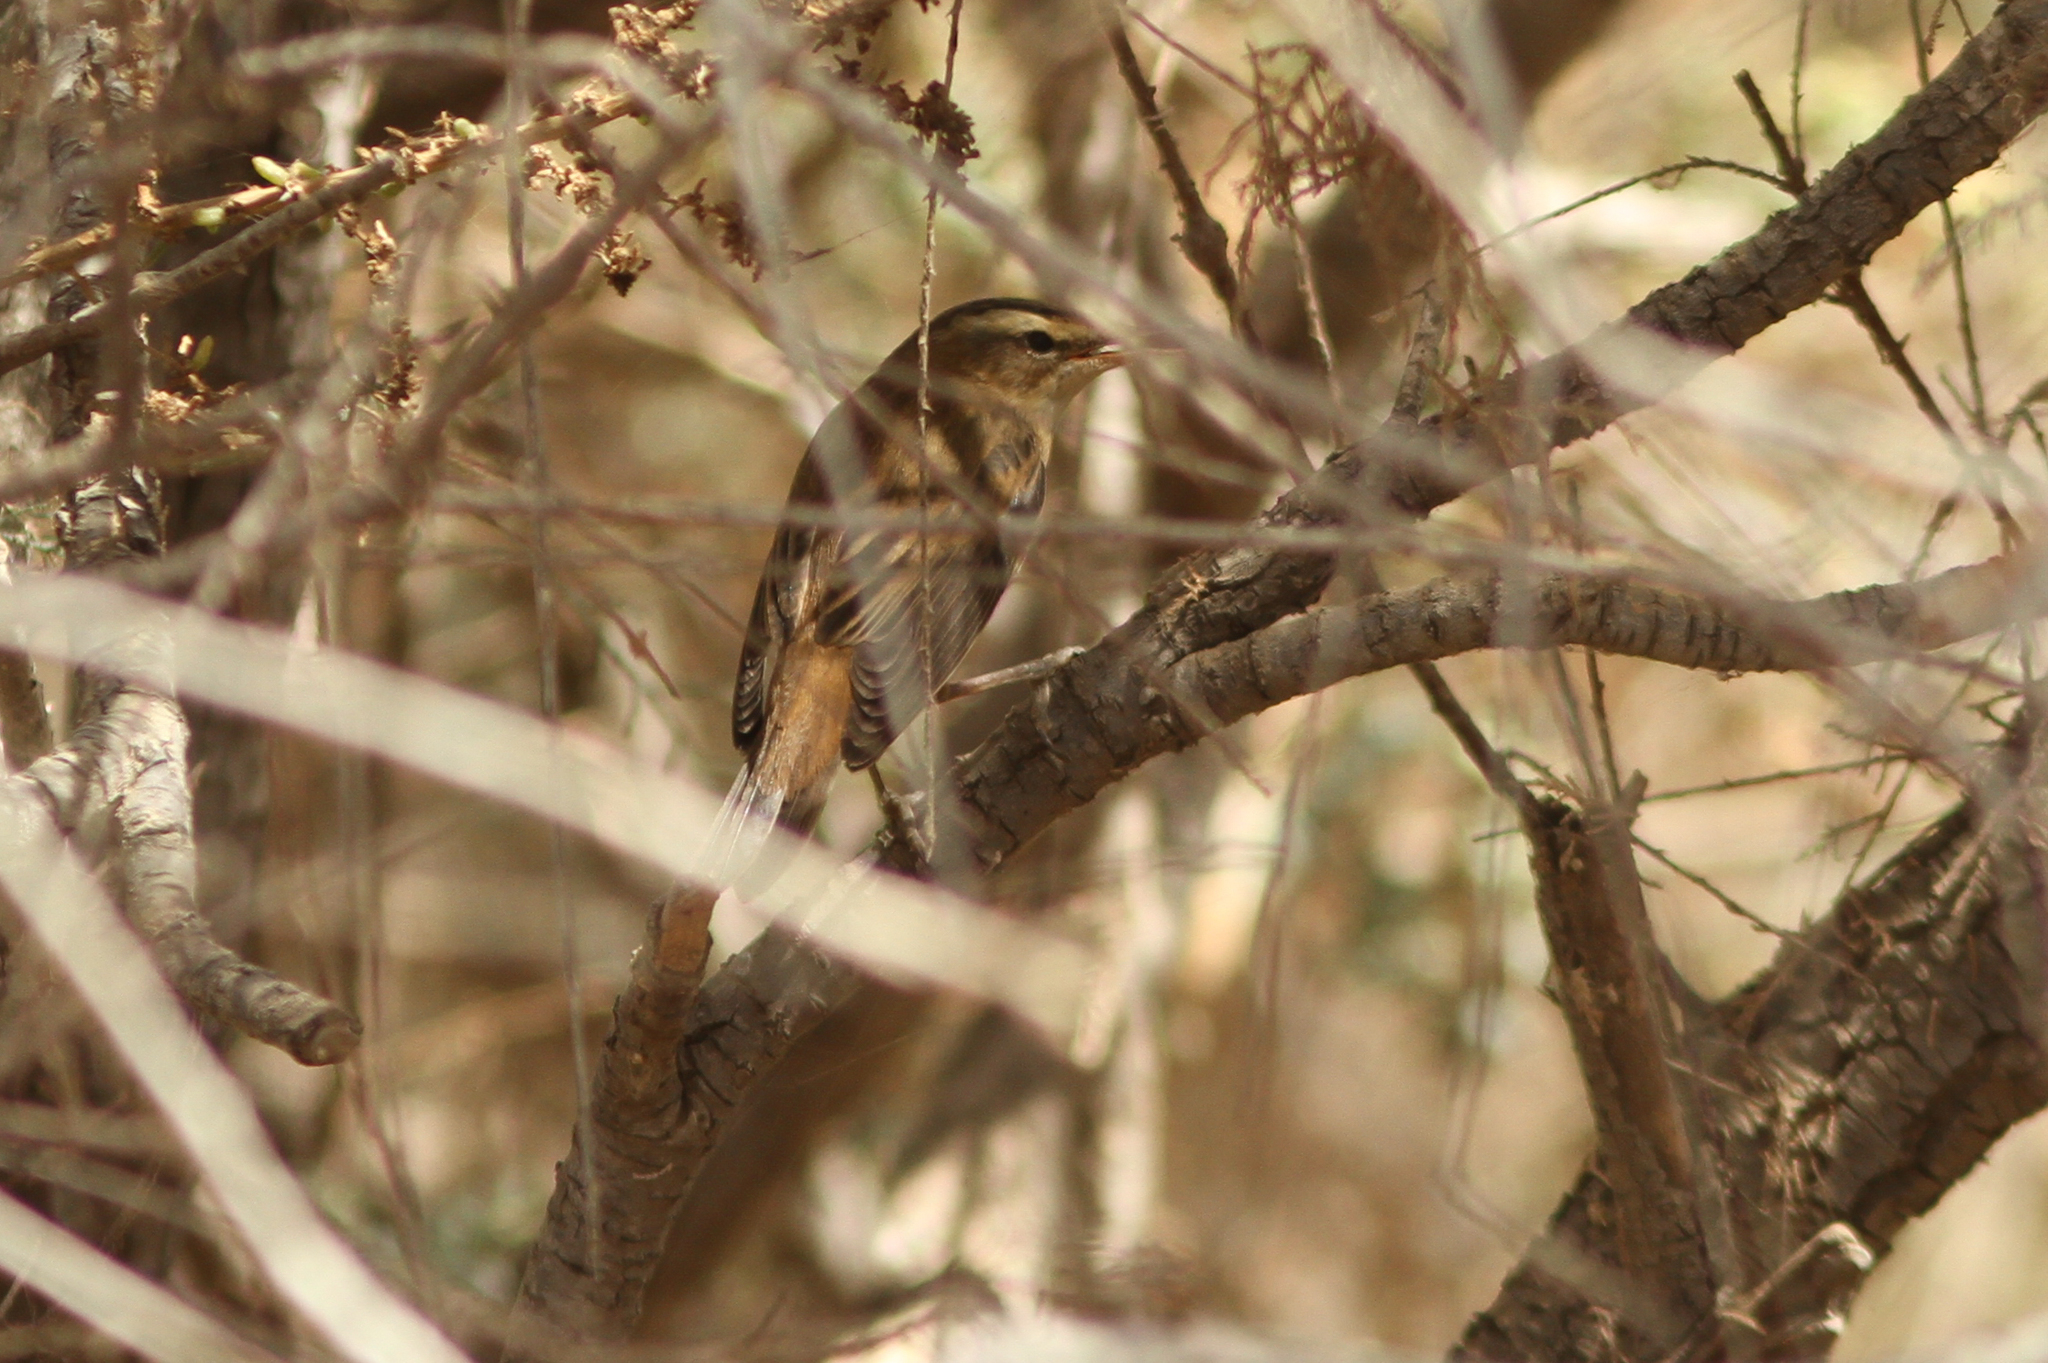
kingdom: Animalia
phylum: Chordata
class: Aves
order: Passeriformes
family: Acrocephalidae
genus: Acrocephalus
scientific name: Acrocephalus schoenobaenus
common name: Sedge warbler
